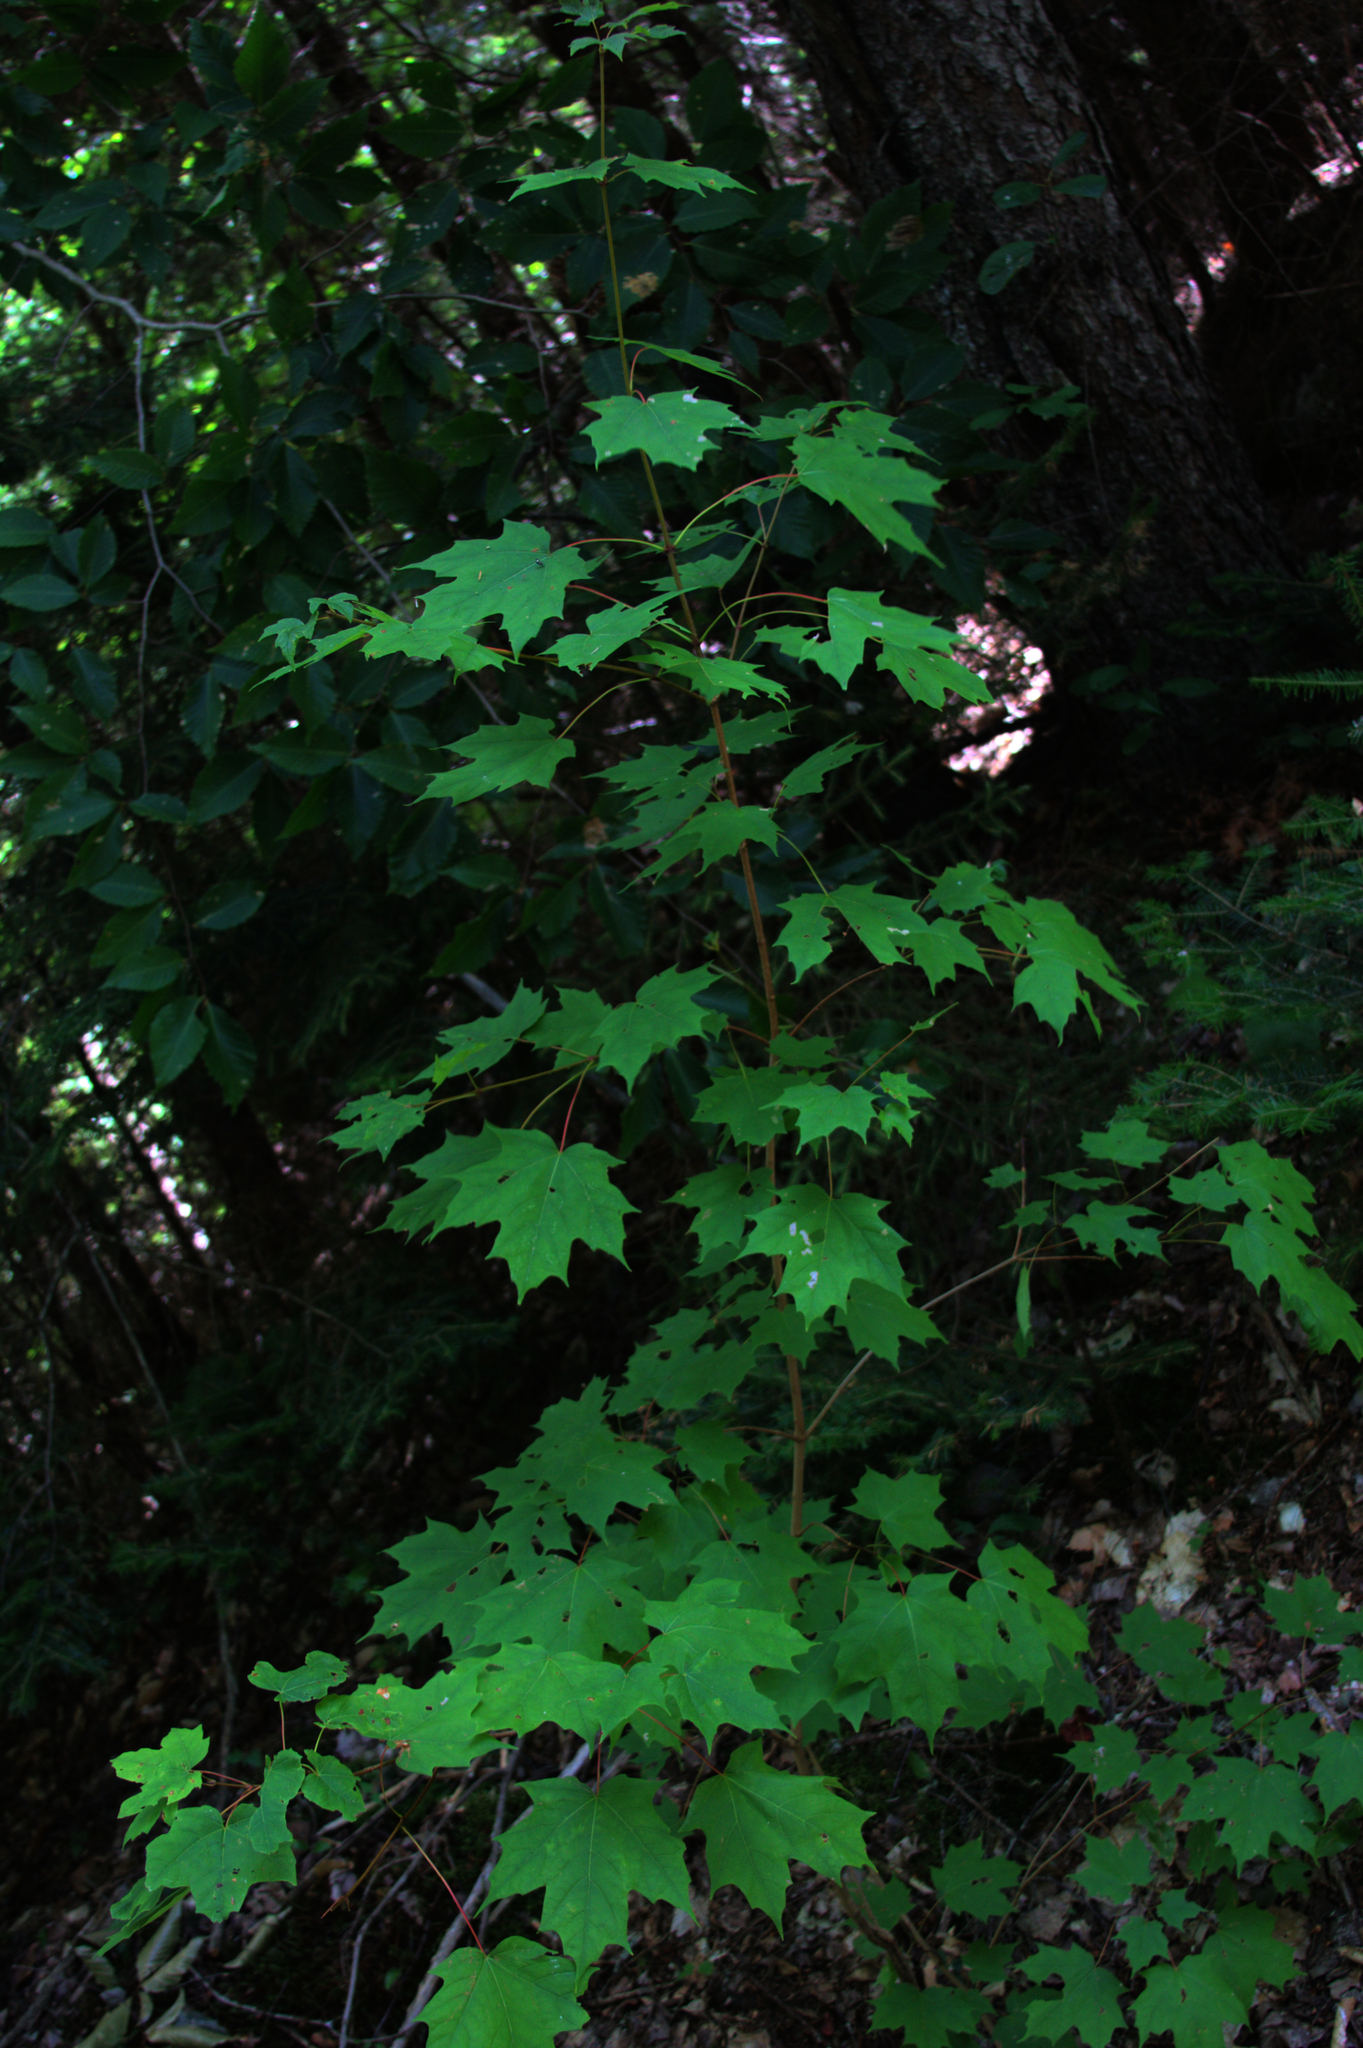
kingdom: Plantae
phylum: Tracheophyta
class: Magnoliopsida
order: Sapindales
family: Sapindaceae
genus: Acer
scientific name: Acer saccharum
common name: Sugar maple
